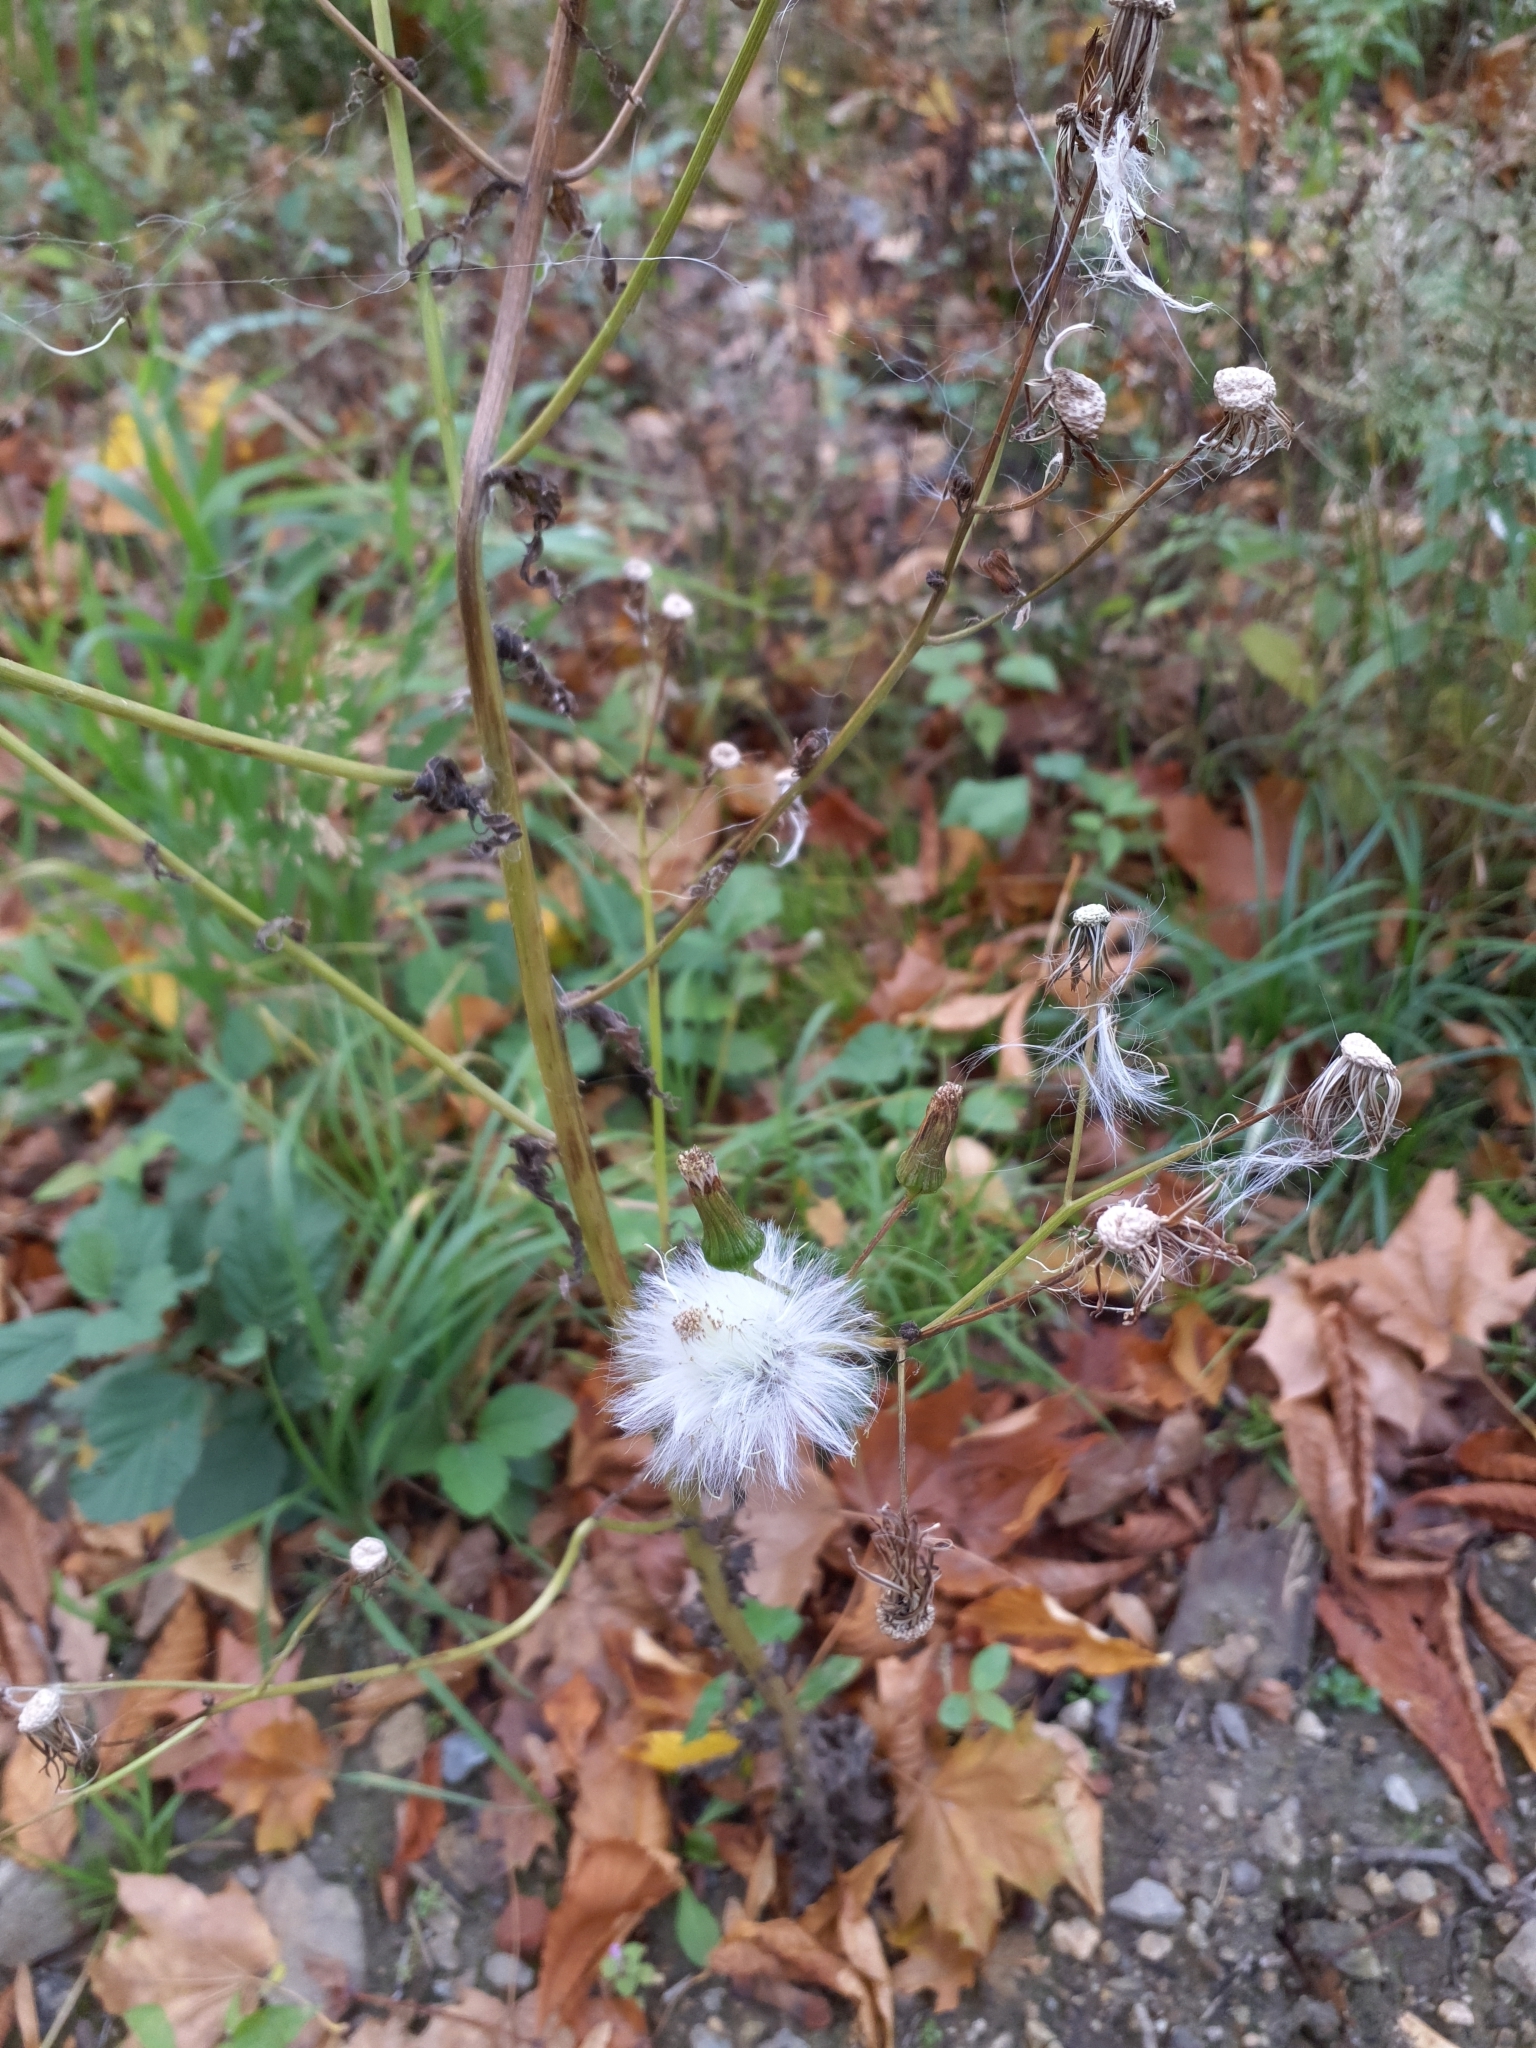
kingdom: Plantae
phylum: Tracheophyta
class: Magnoliopsida
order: Asterales
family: Asteraceae
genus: Erechtites
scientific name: Erechtites hieraciifolius
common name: American burnweed
